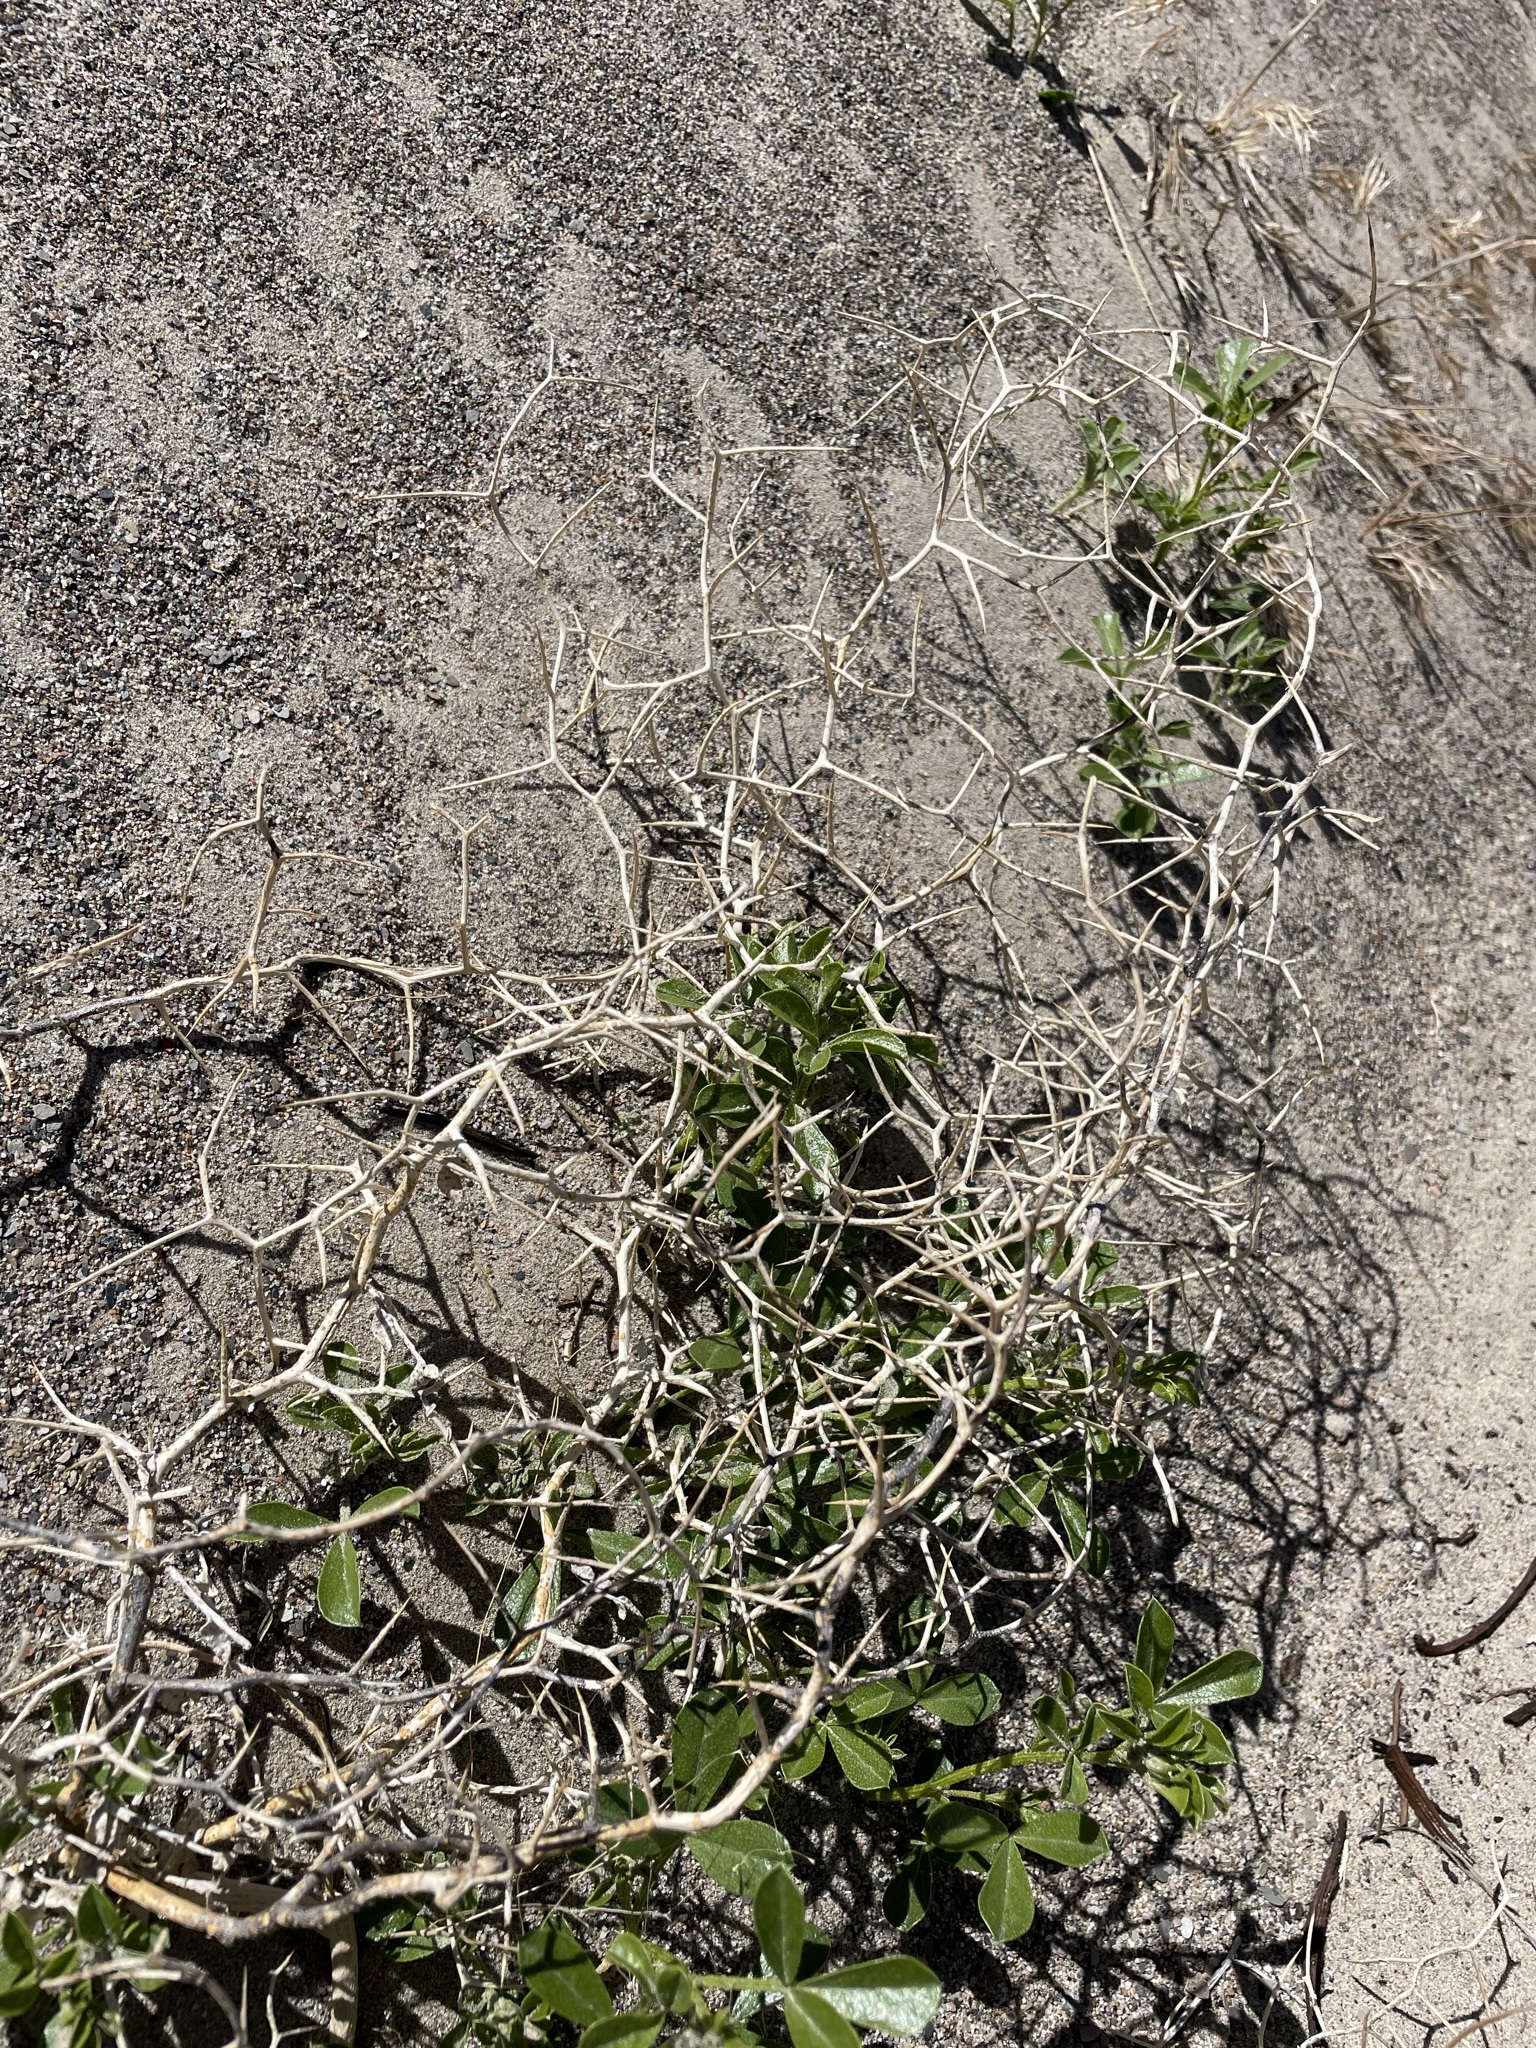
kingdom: Plantae
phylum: Tracheophyta
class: Magnoliopsida
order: Fabales
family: Fabaceae
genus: Psorothamnus
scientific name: Psorothamnus kingii
